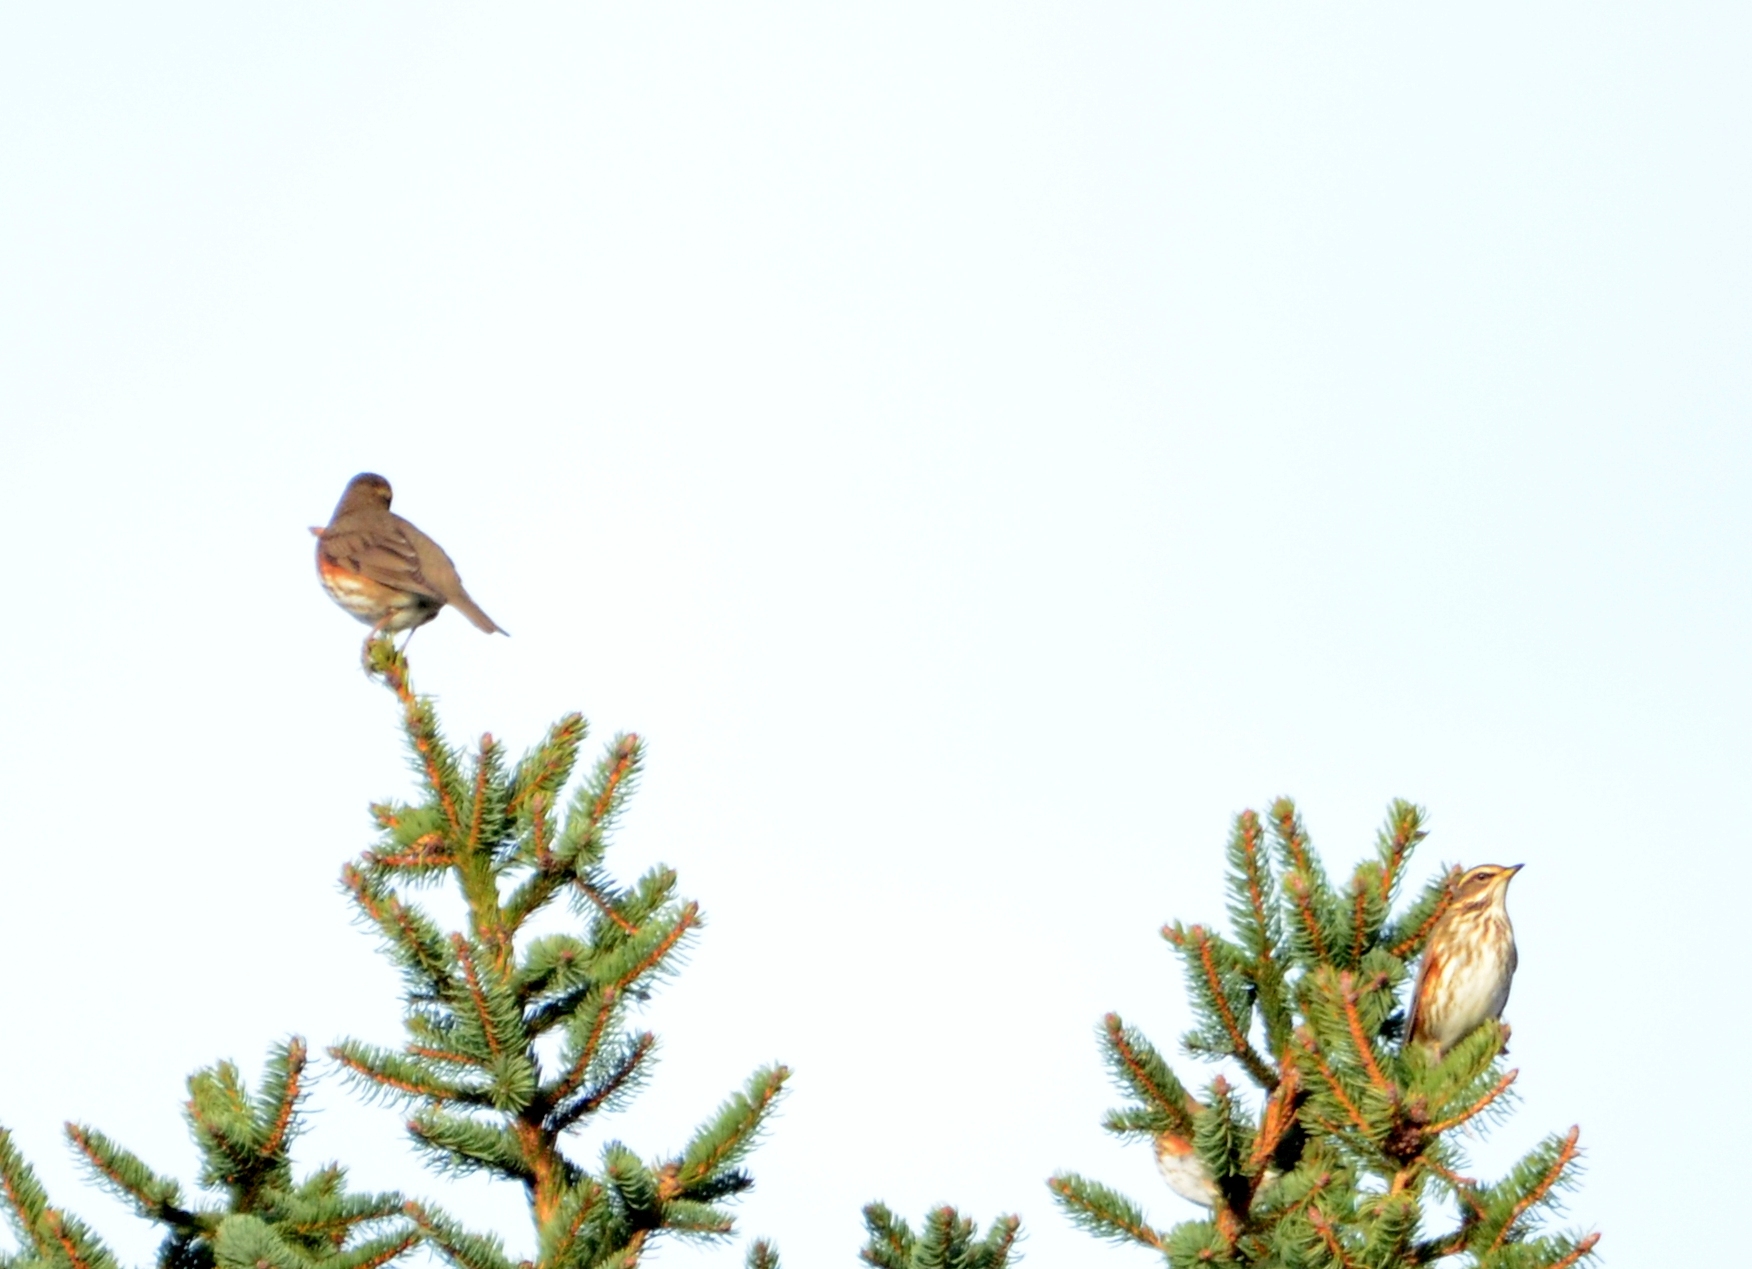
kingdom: Animalia
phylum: Chordata
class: Aves
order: Passeriformes
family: Turdidae
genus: Turdus
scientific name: Turdus iliacus
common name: Redwing
